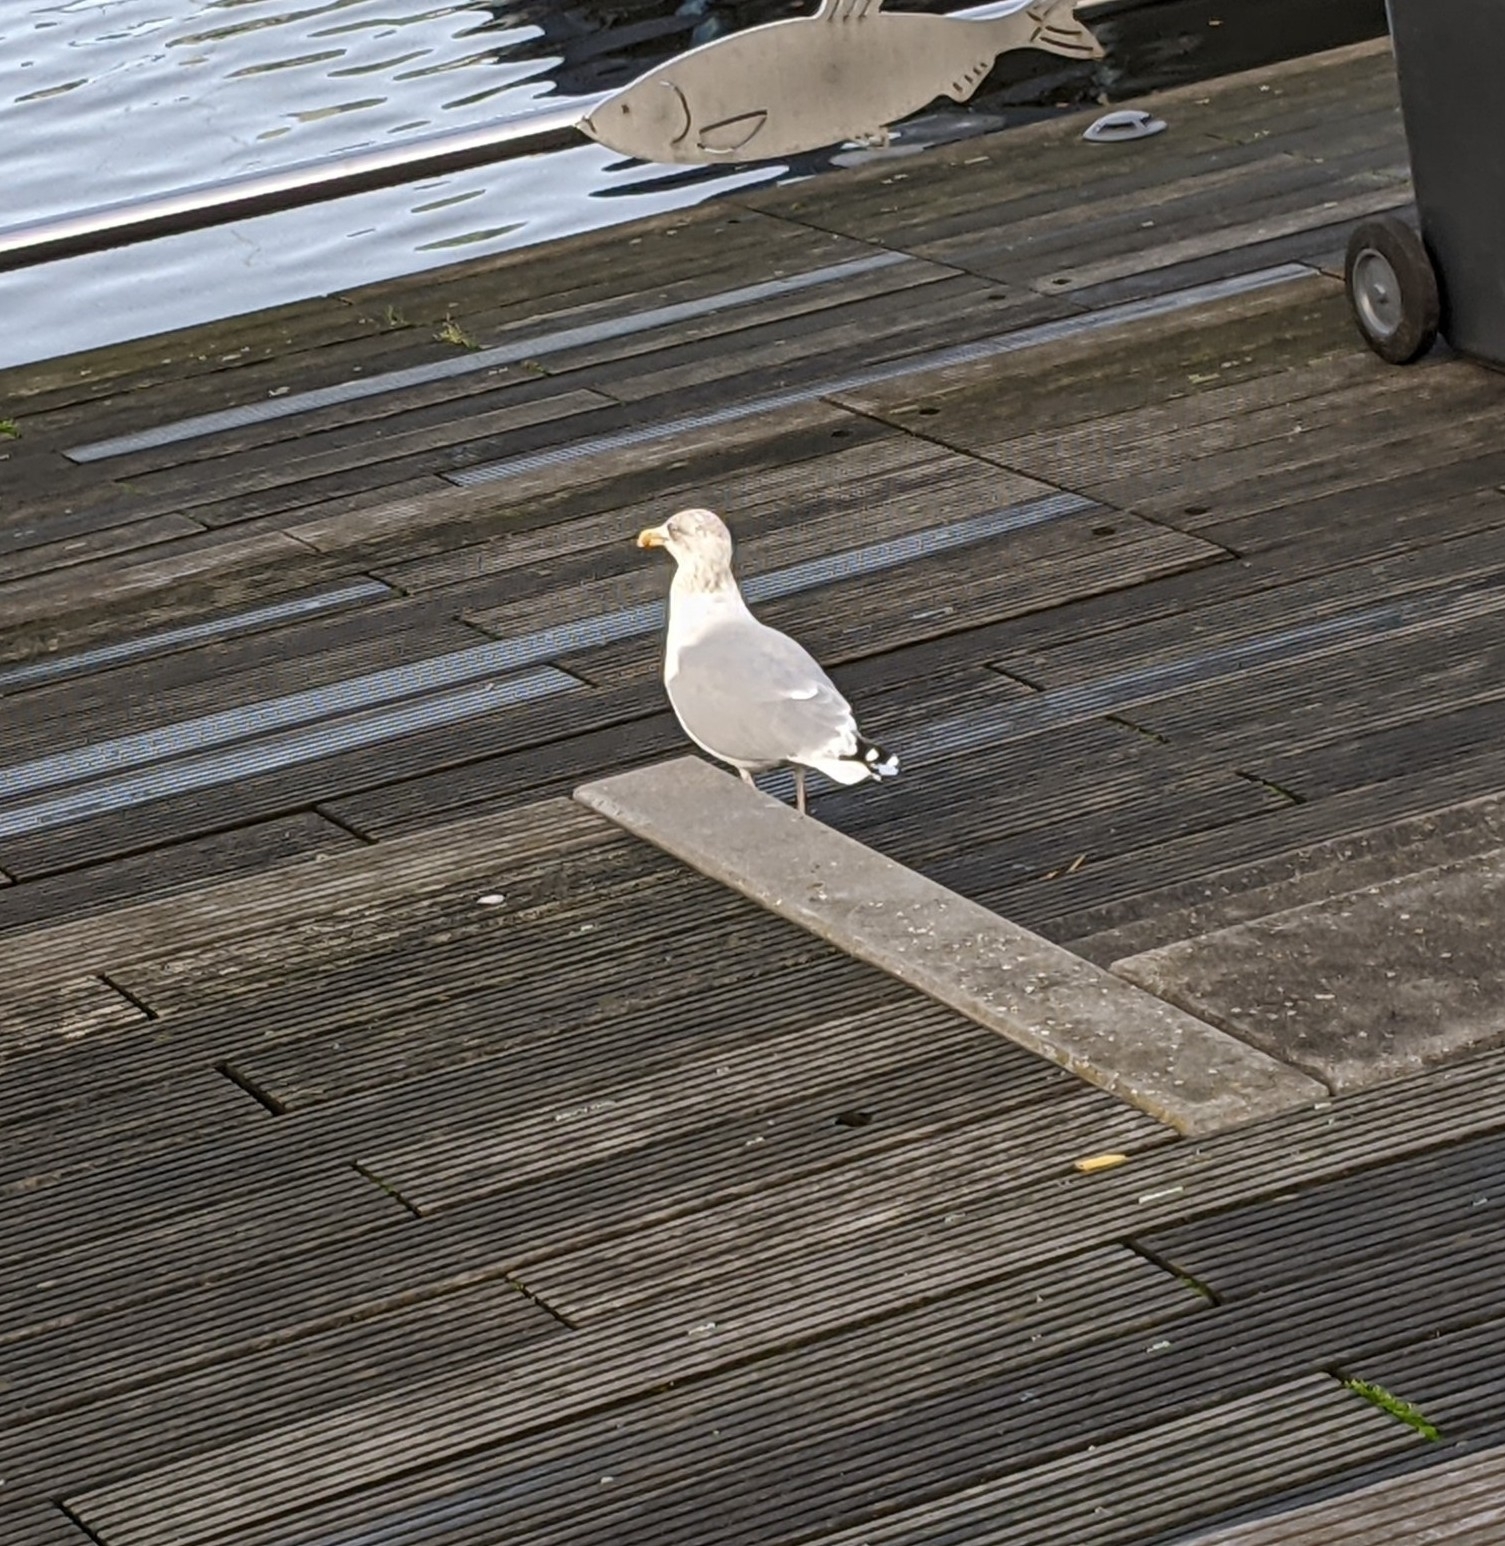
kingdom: Animalia
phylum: Chordata
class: Aves
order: Charadriiformes
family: Laridae
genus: Larus
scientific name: Larus argentatus
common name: Herring gull
